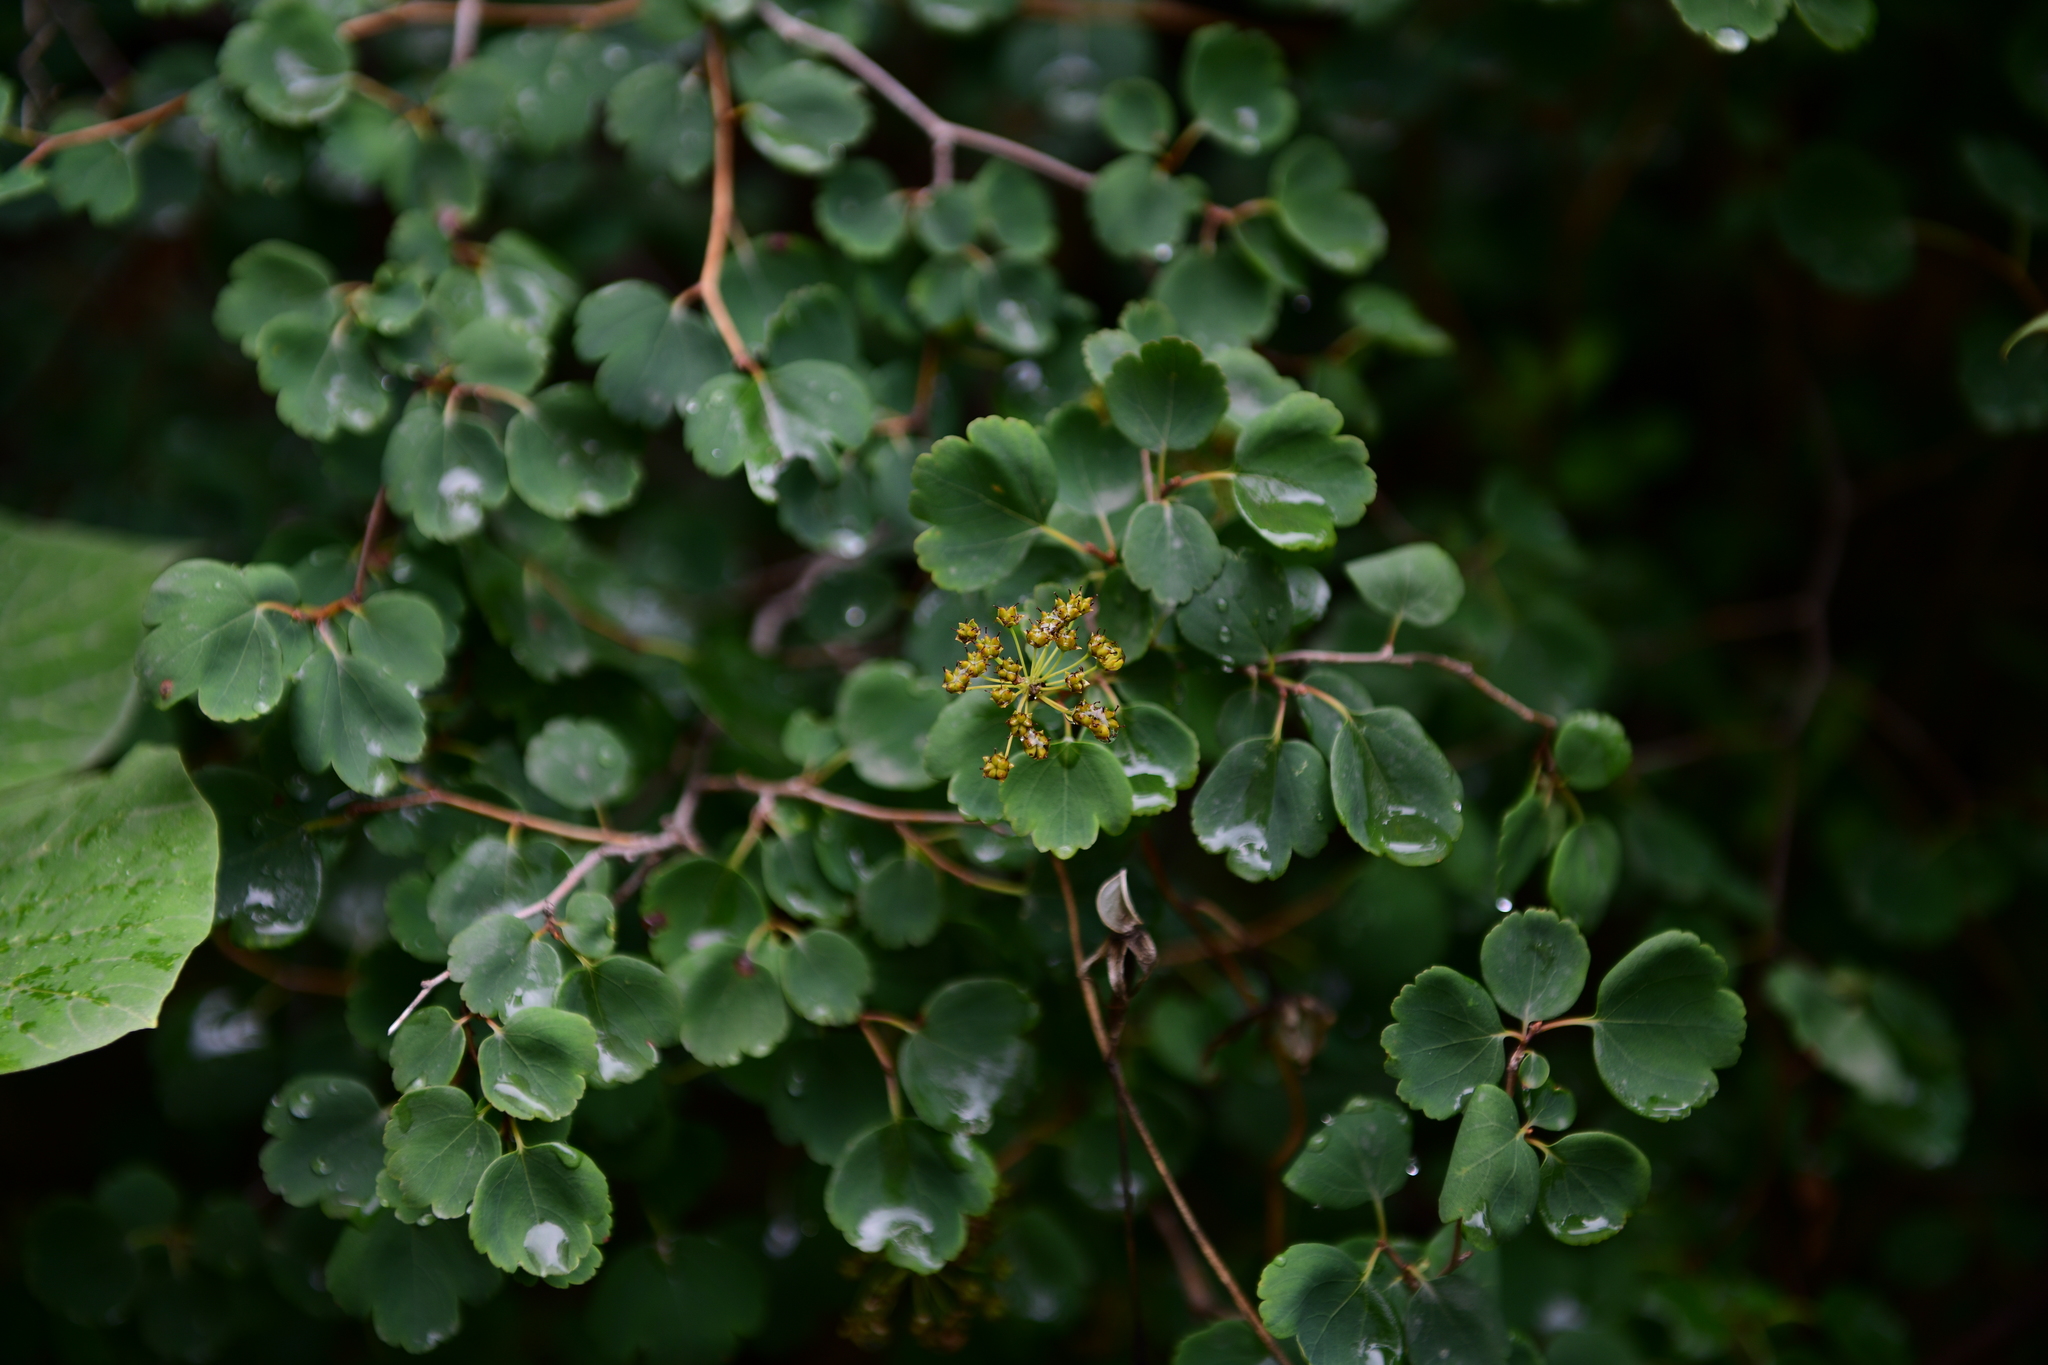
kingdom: Plantae
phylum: Tracheophyta
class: Magnoliopsida
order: Rosales
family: Rosaceae
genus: Spiraea
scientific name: Spiraea trilobata
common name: Asian meadowsweet
